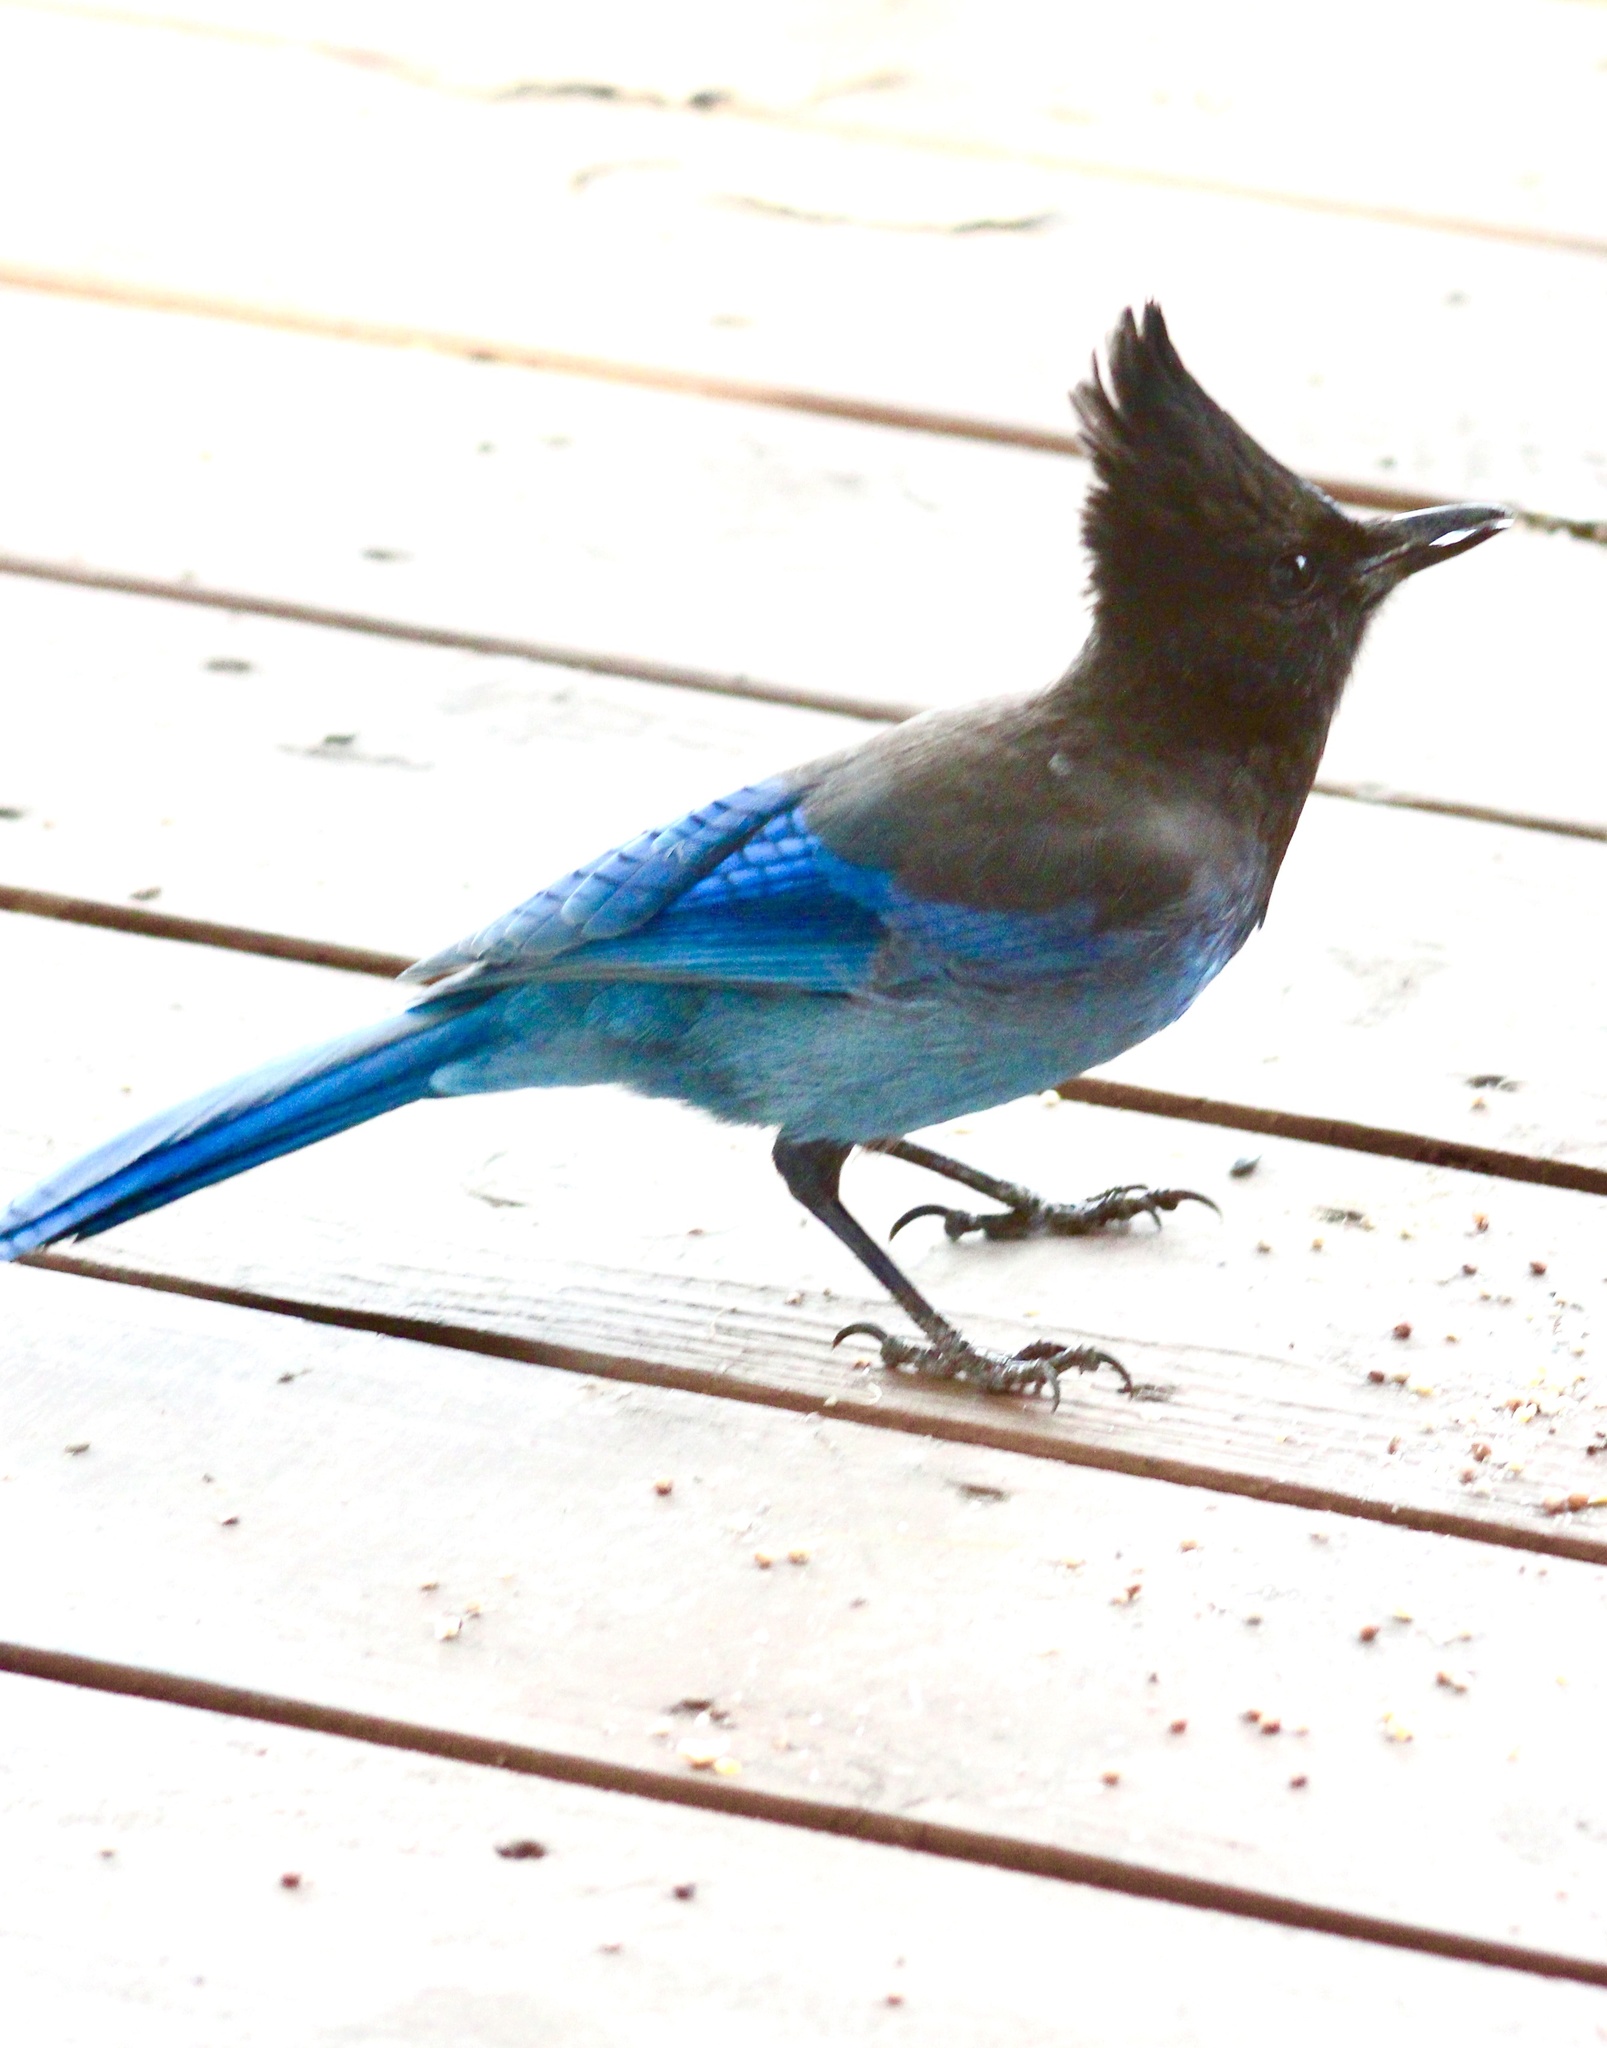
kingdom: Animalia
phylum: Chordata
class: Aves
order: Passeriformes
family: Corvidae
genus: Cyanocitta
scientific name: Cyanocitta stelleri
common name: Steller's jay
